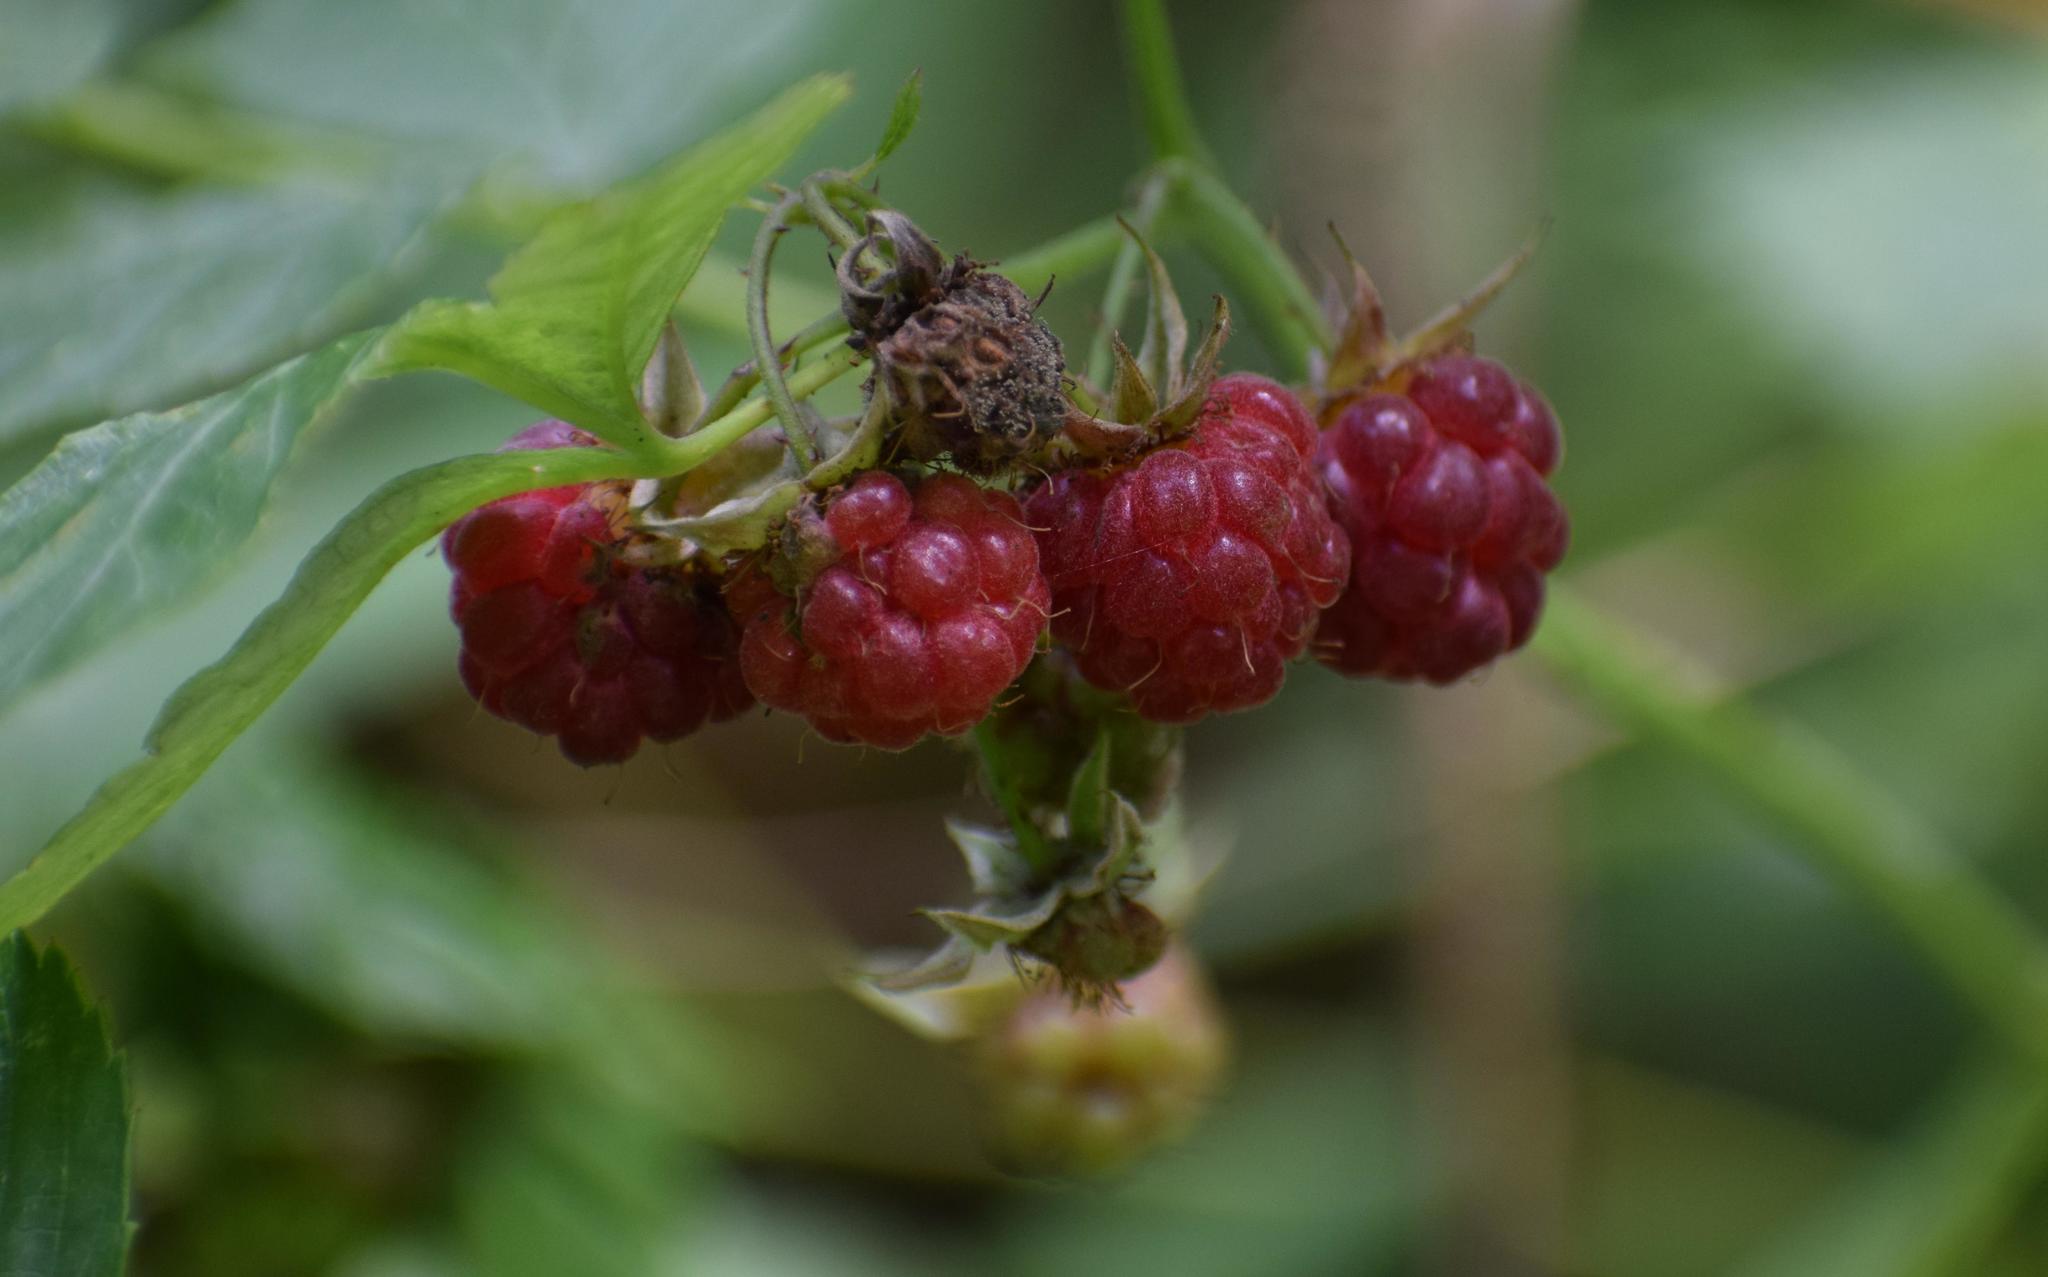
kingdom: Plantae
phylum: Tracheophyta
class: Magnoliopsida
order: Rosales
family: Rosaceae
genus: Rubus
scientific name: Rubus idaeus
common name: Raspberry
